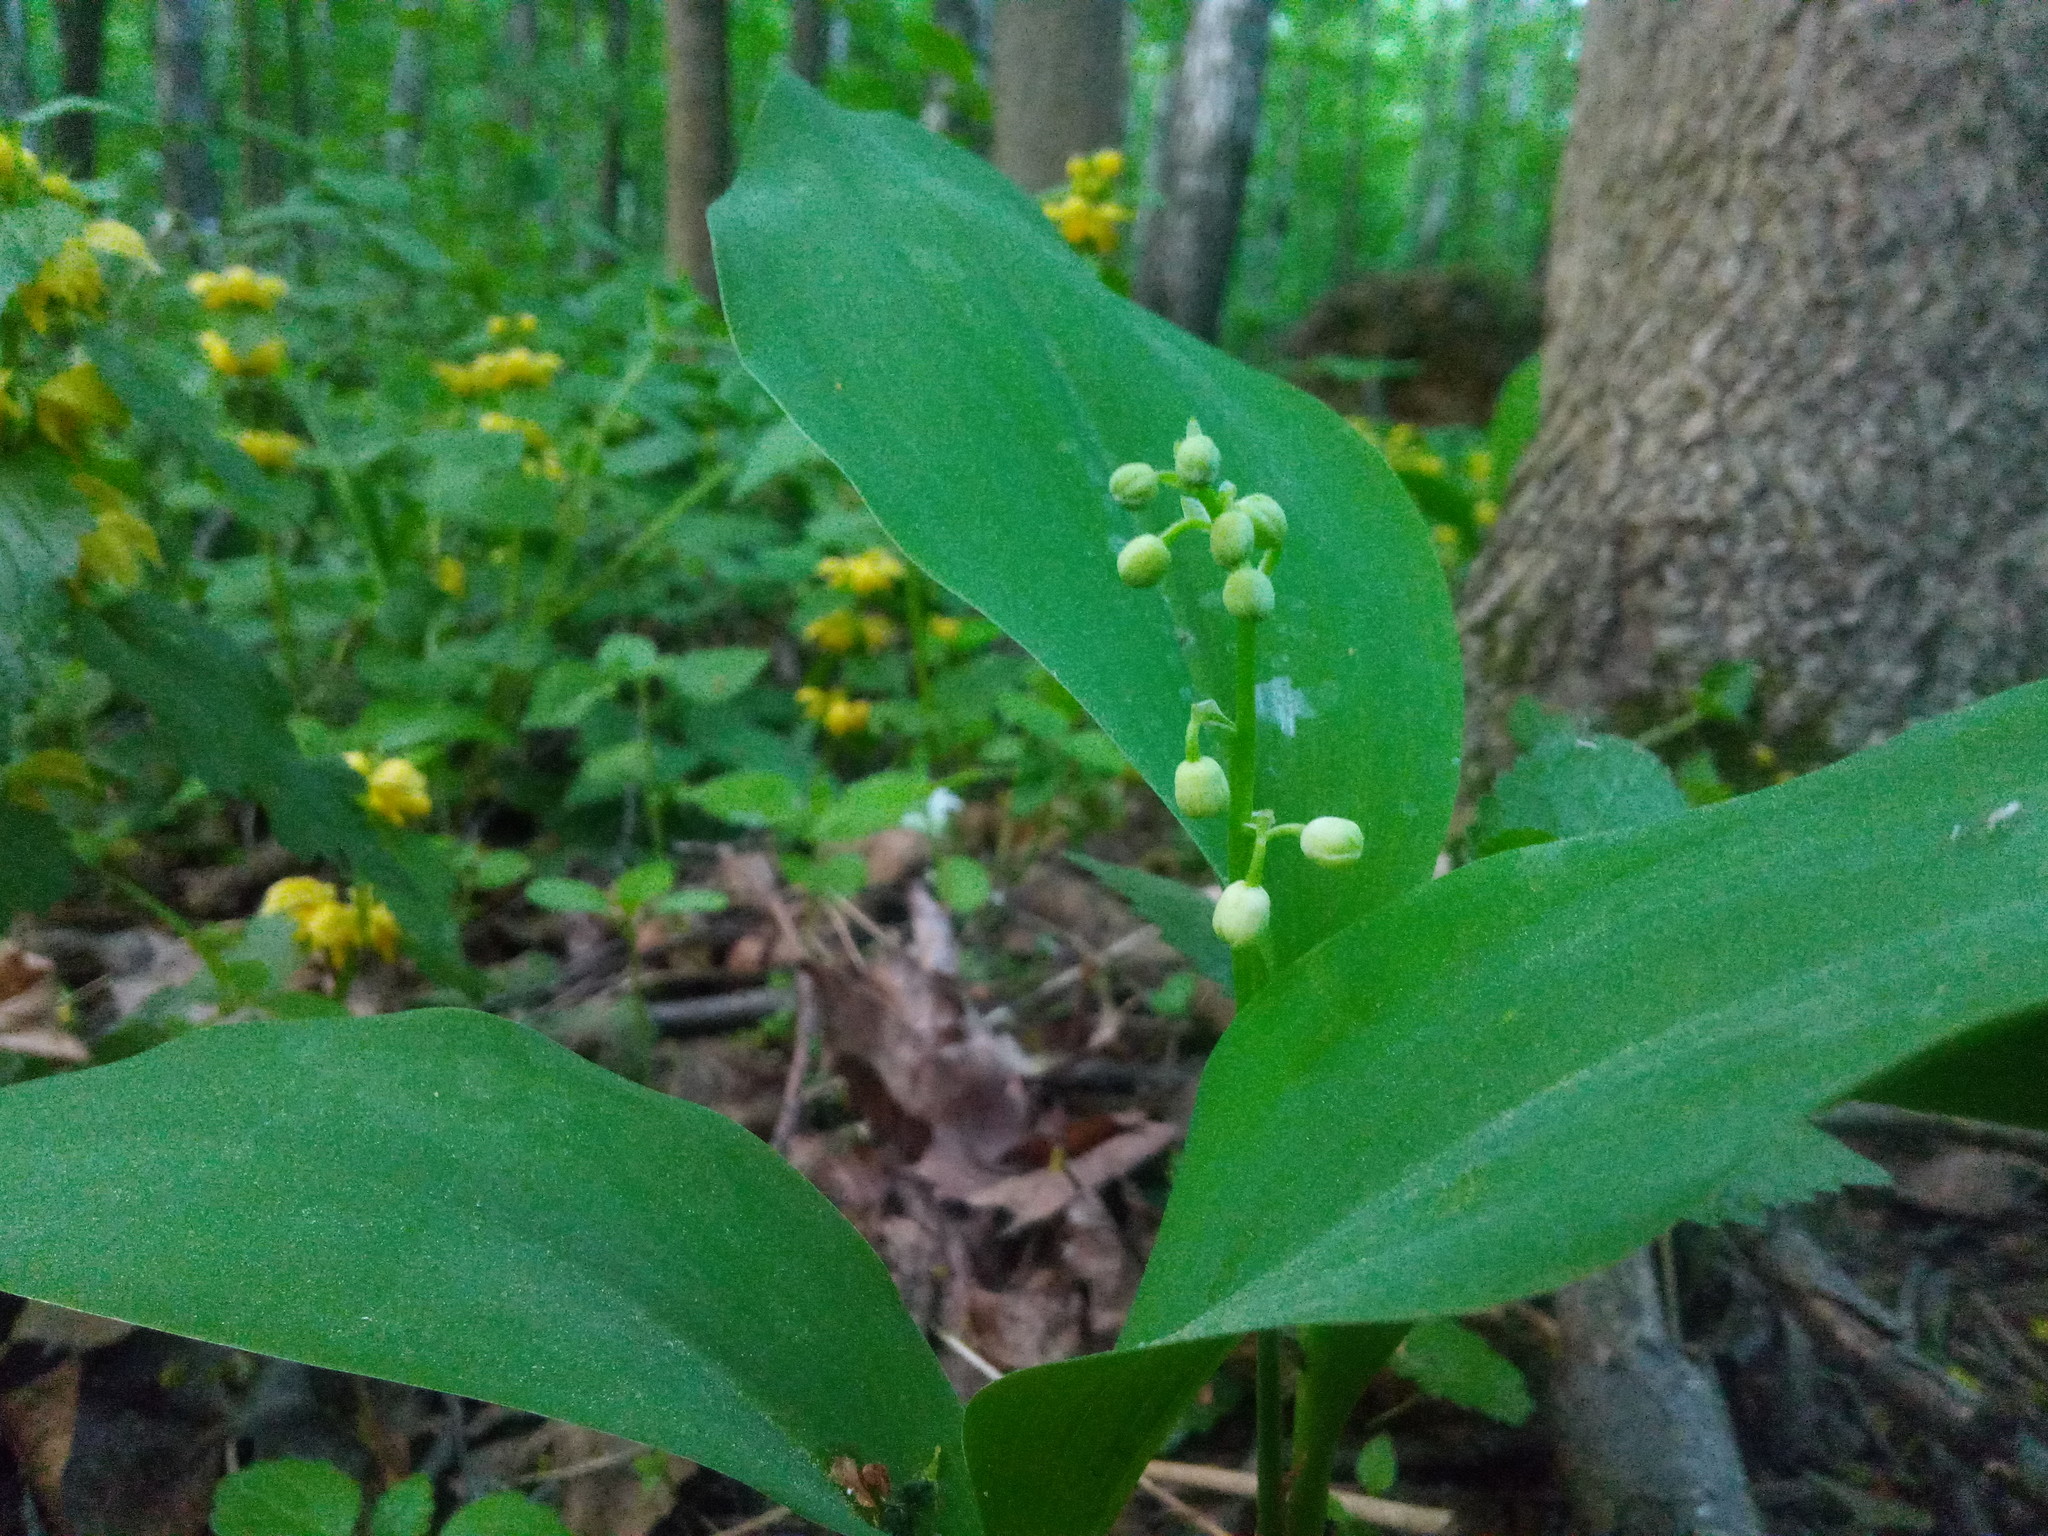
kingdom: Plantae
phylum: Tracheophyta
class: Liliopsida
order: Asparagales
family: Asparagaceae
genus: Convallaria
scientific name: Convallaria majalis
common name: Lily-of-the-valley
